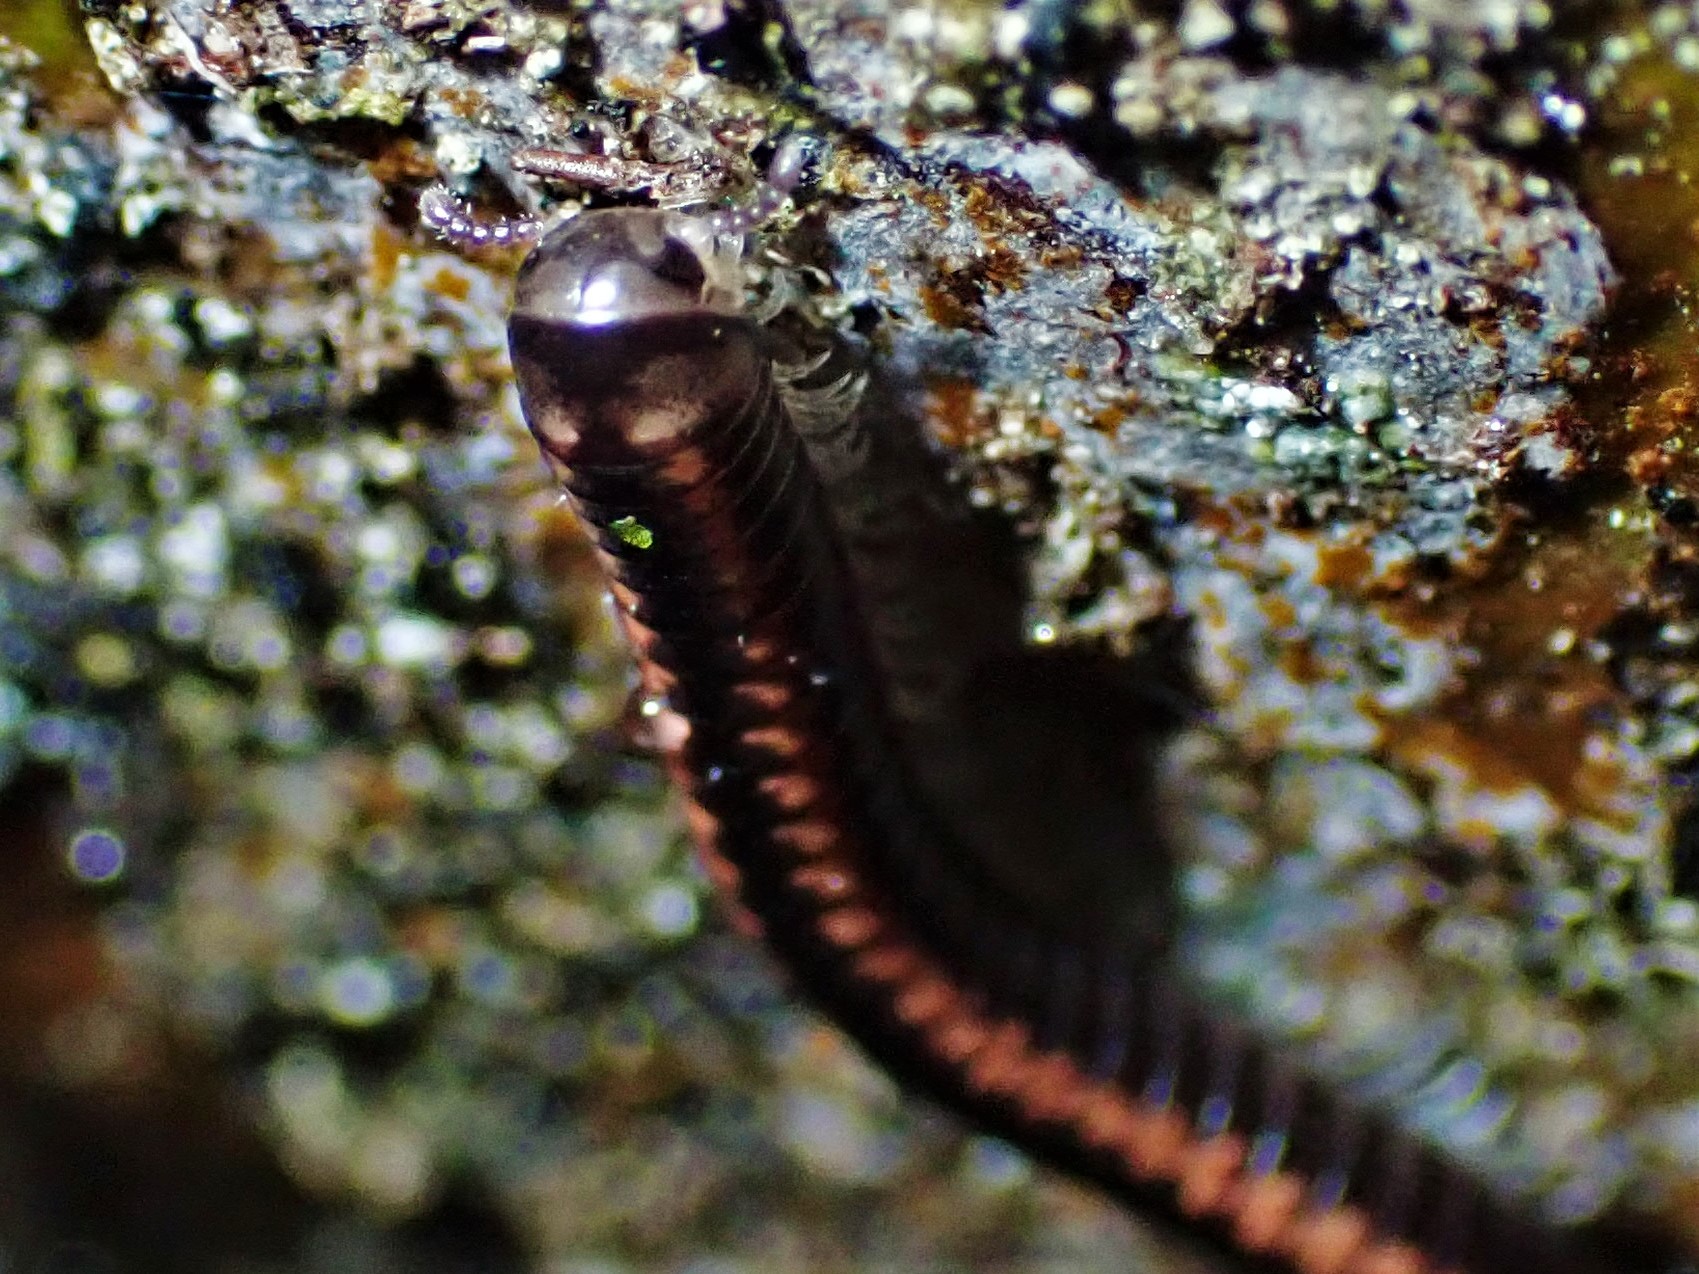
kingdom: Animalia
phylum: Arthropoda
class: Diplopoda
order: Spirobolida
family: Spirobolellidae
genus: Spirobolellus
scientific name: Spirobolellus antipodarum
